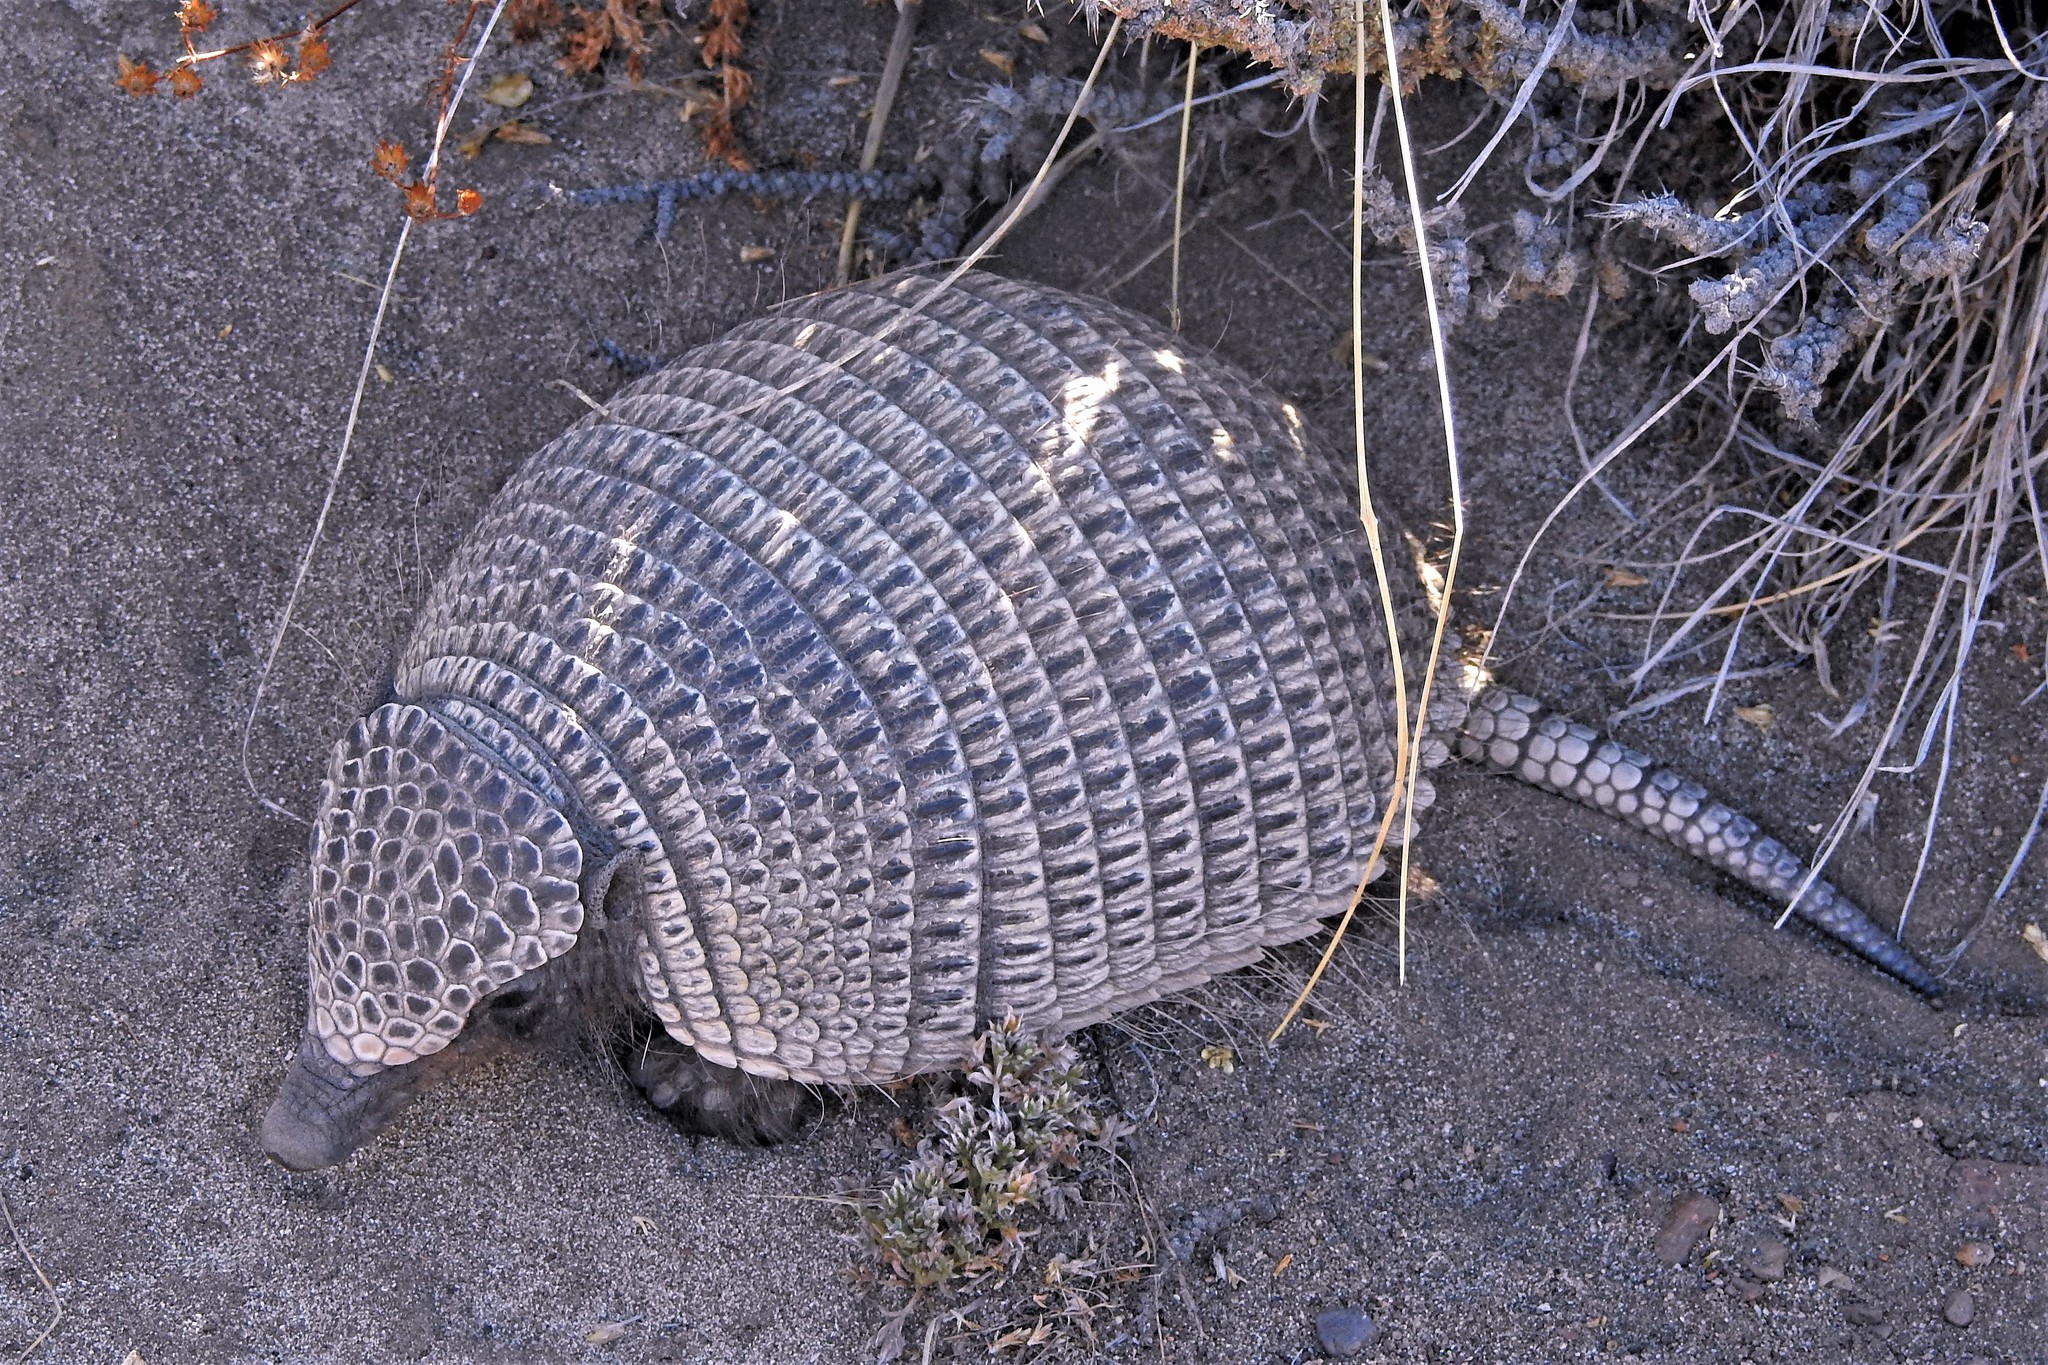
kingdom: Animalia
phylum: Chordata
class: Mammalia
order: Cingulata
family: Dasypodidae
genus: Zaedyus
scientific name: Zaedyus pichiy
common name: Pichi
